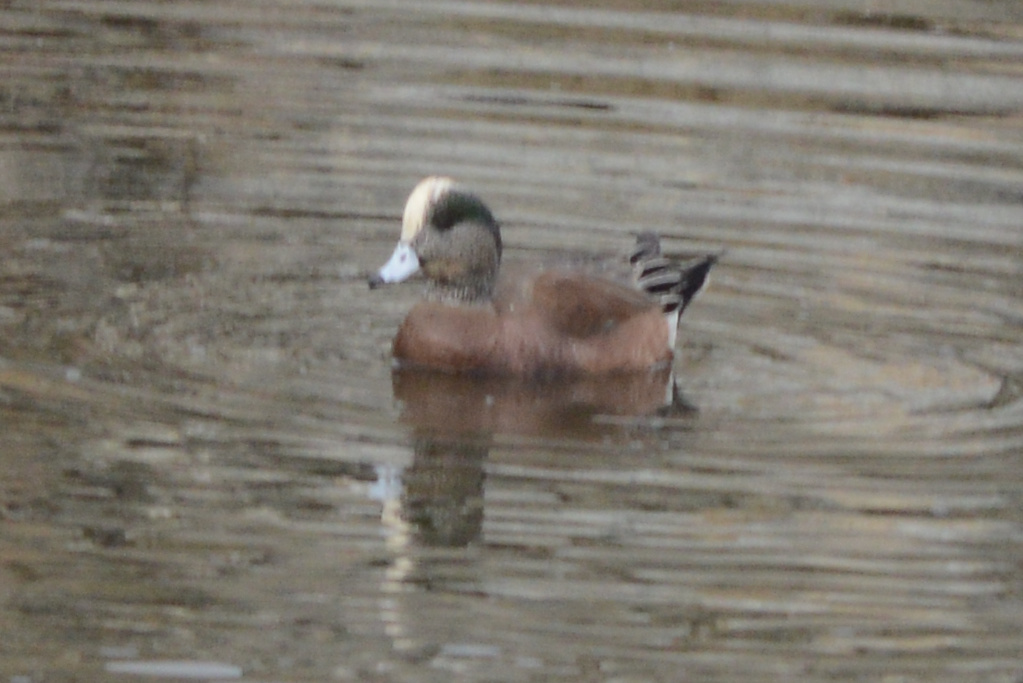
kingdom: Animalia
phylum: Chordata
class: Aves
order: Anseriformes
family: Anatidae
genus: Mareca
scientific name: Mareca americana
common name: American wigeon
